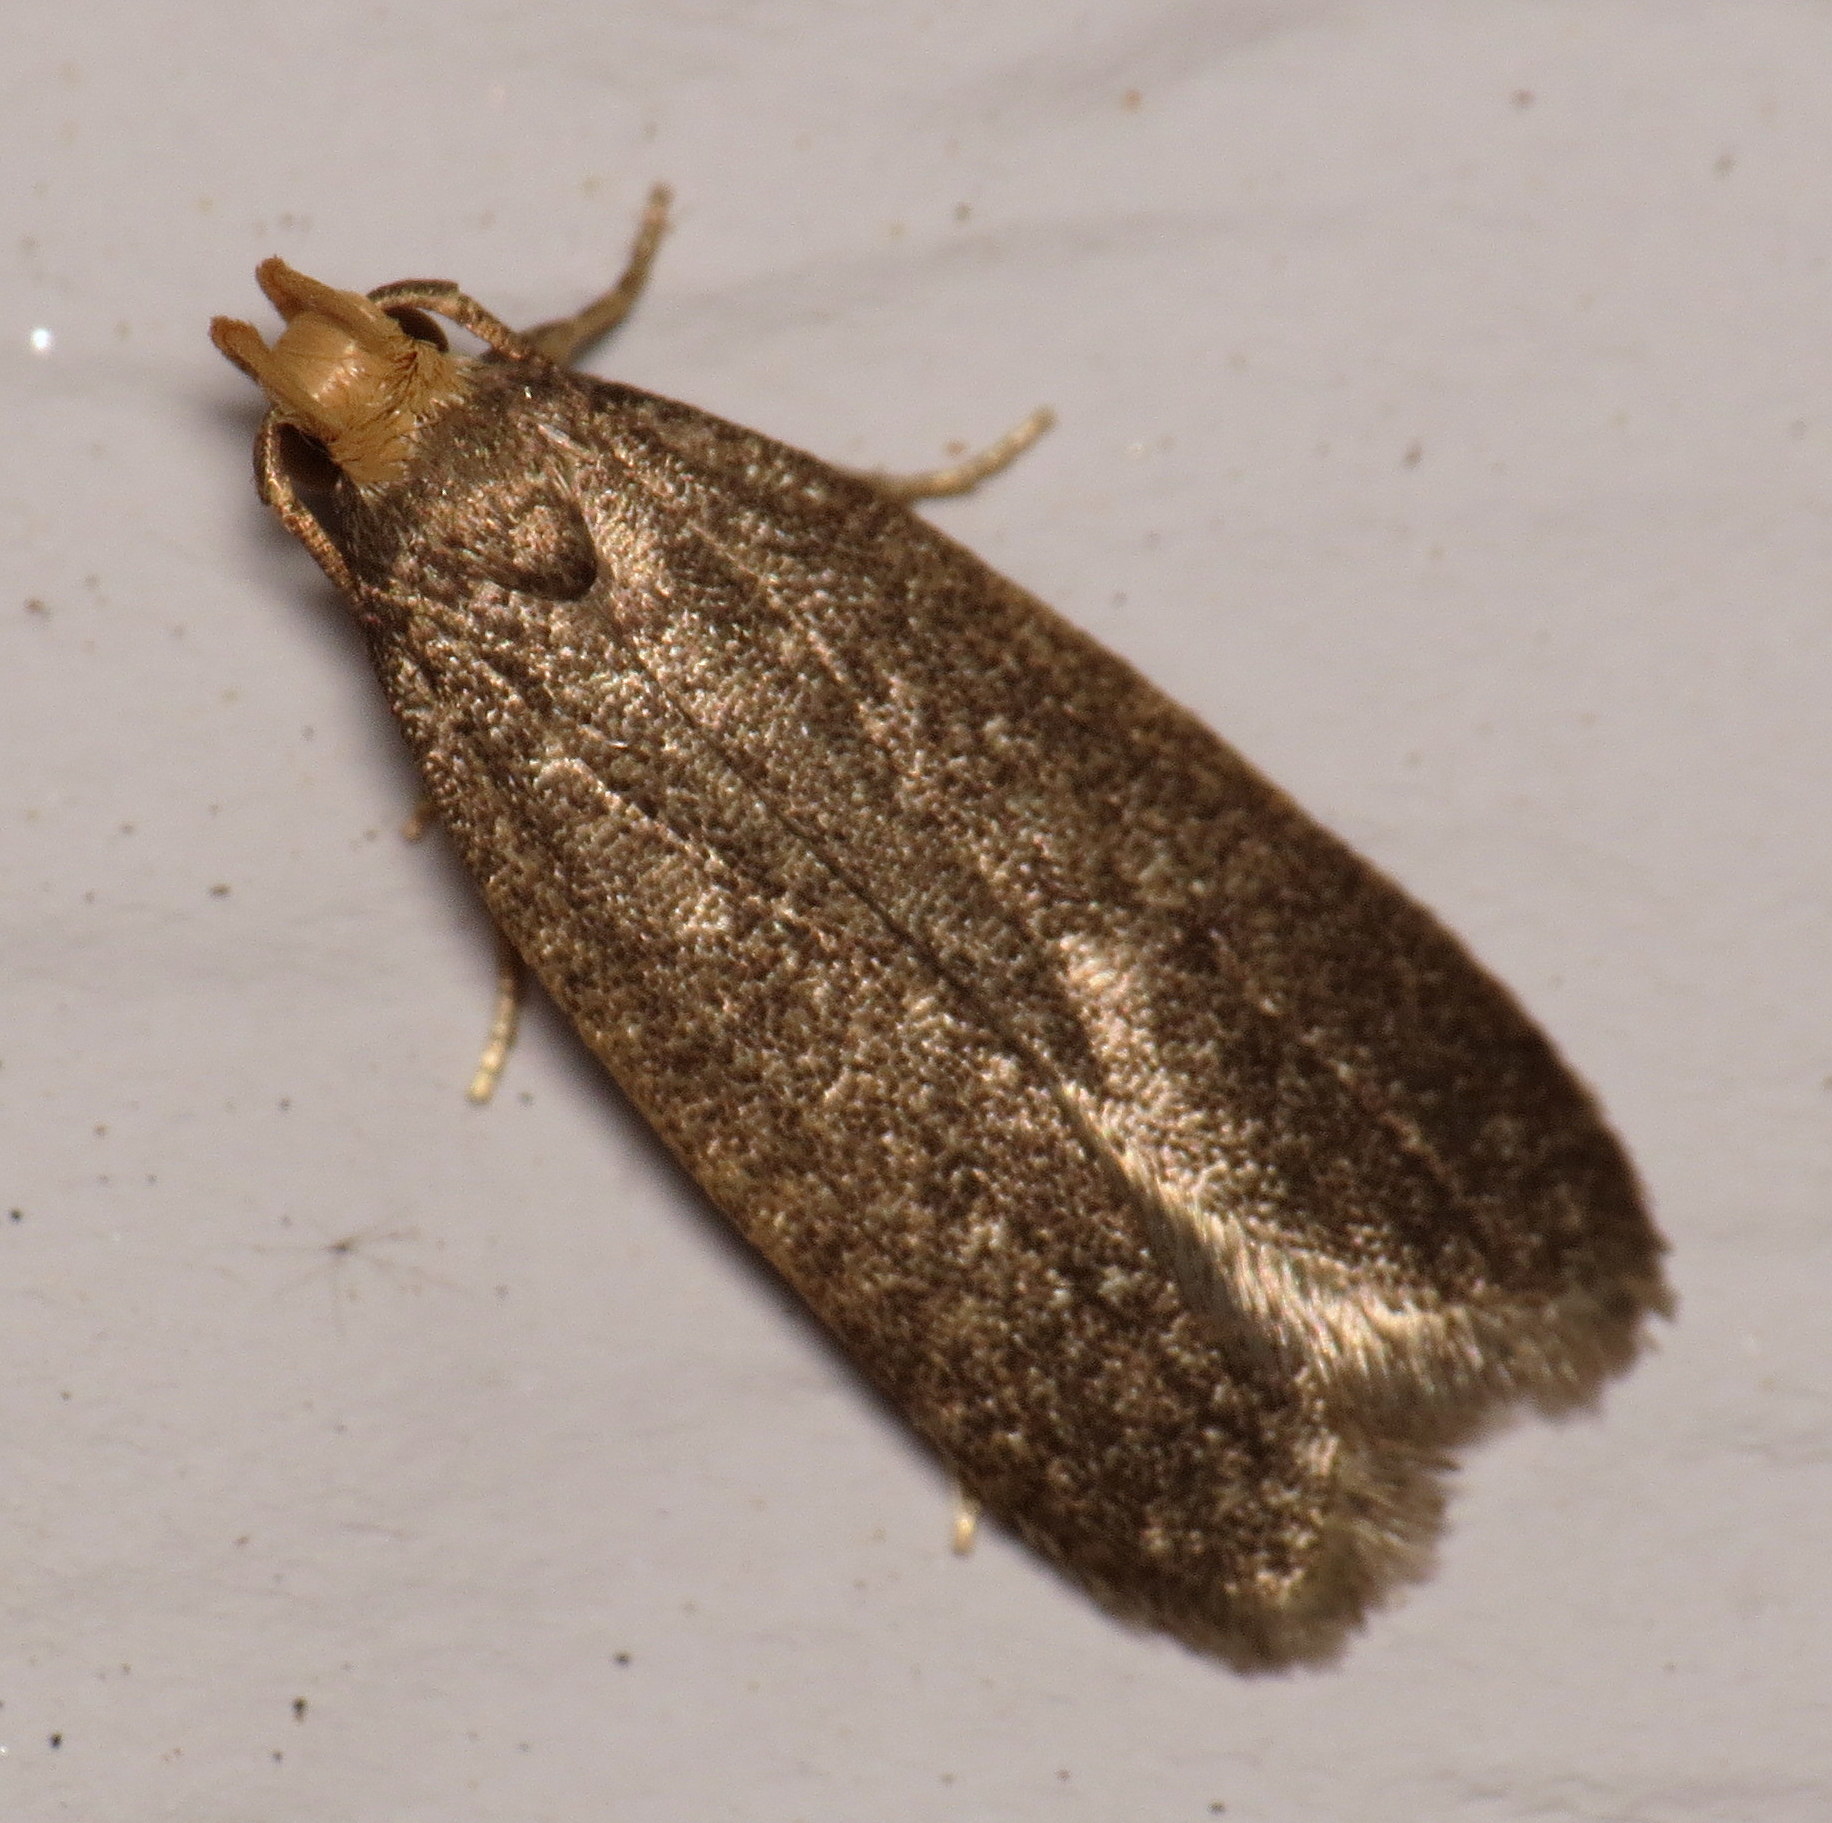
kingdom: Animalia
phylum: Arthropoda
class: Insecta
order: Lepidoptera
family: Autostichidae
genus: Glyphidocera
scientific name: Glyphidocera lithodoxa
